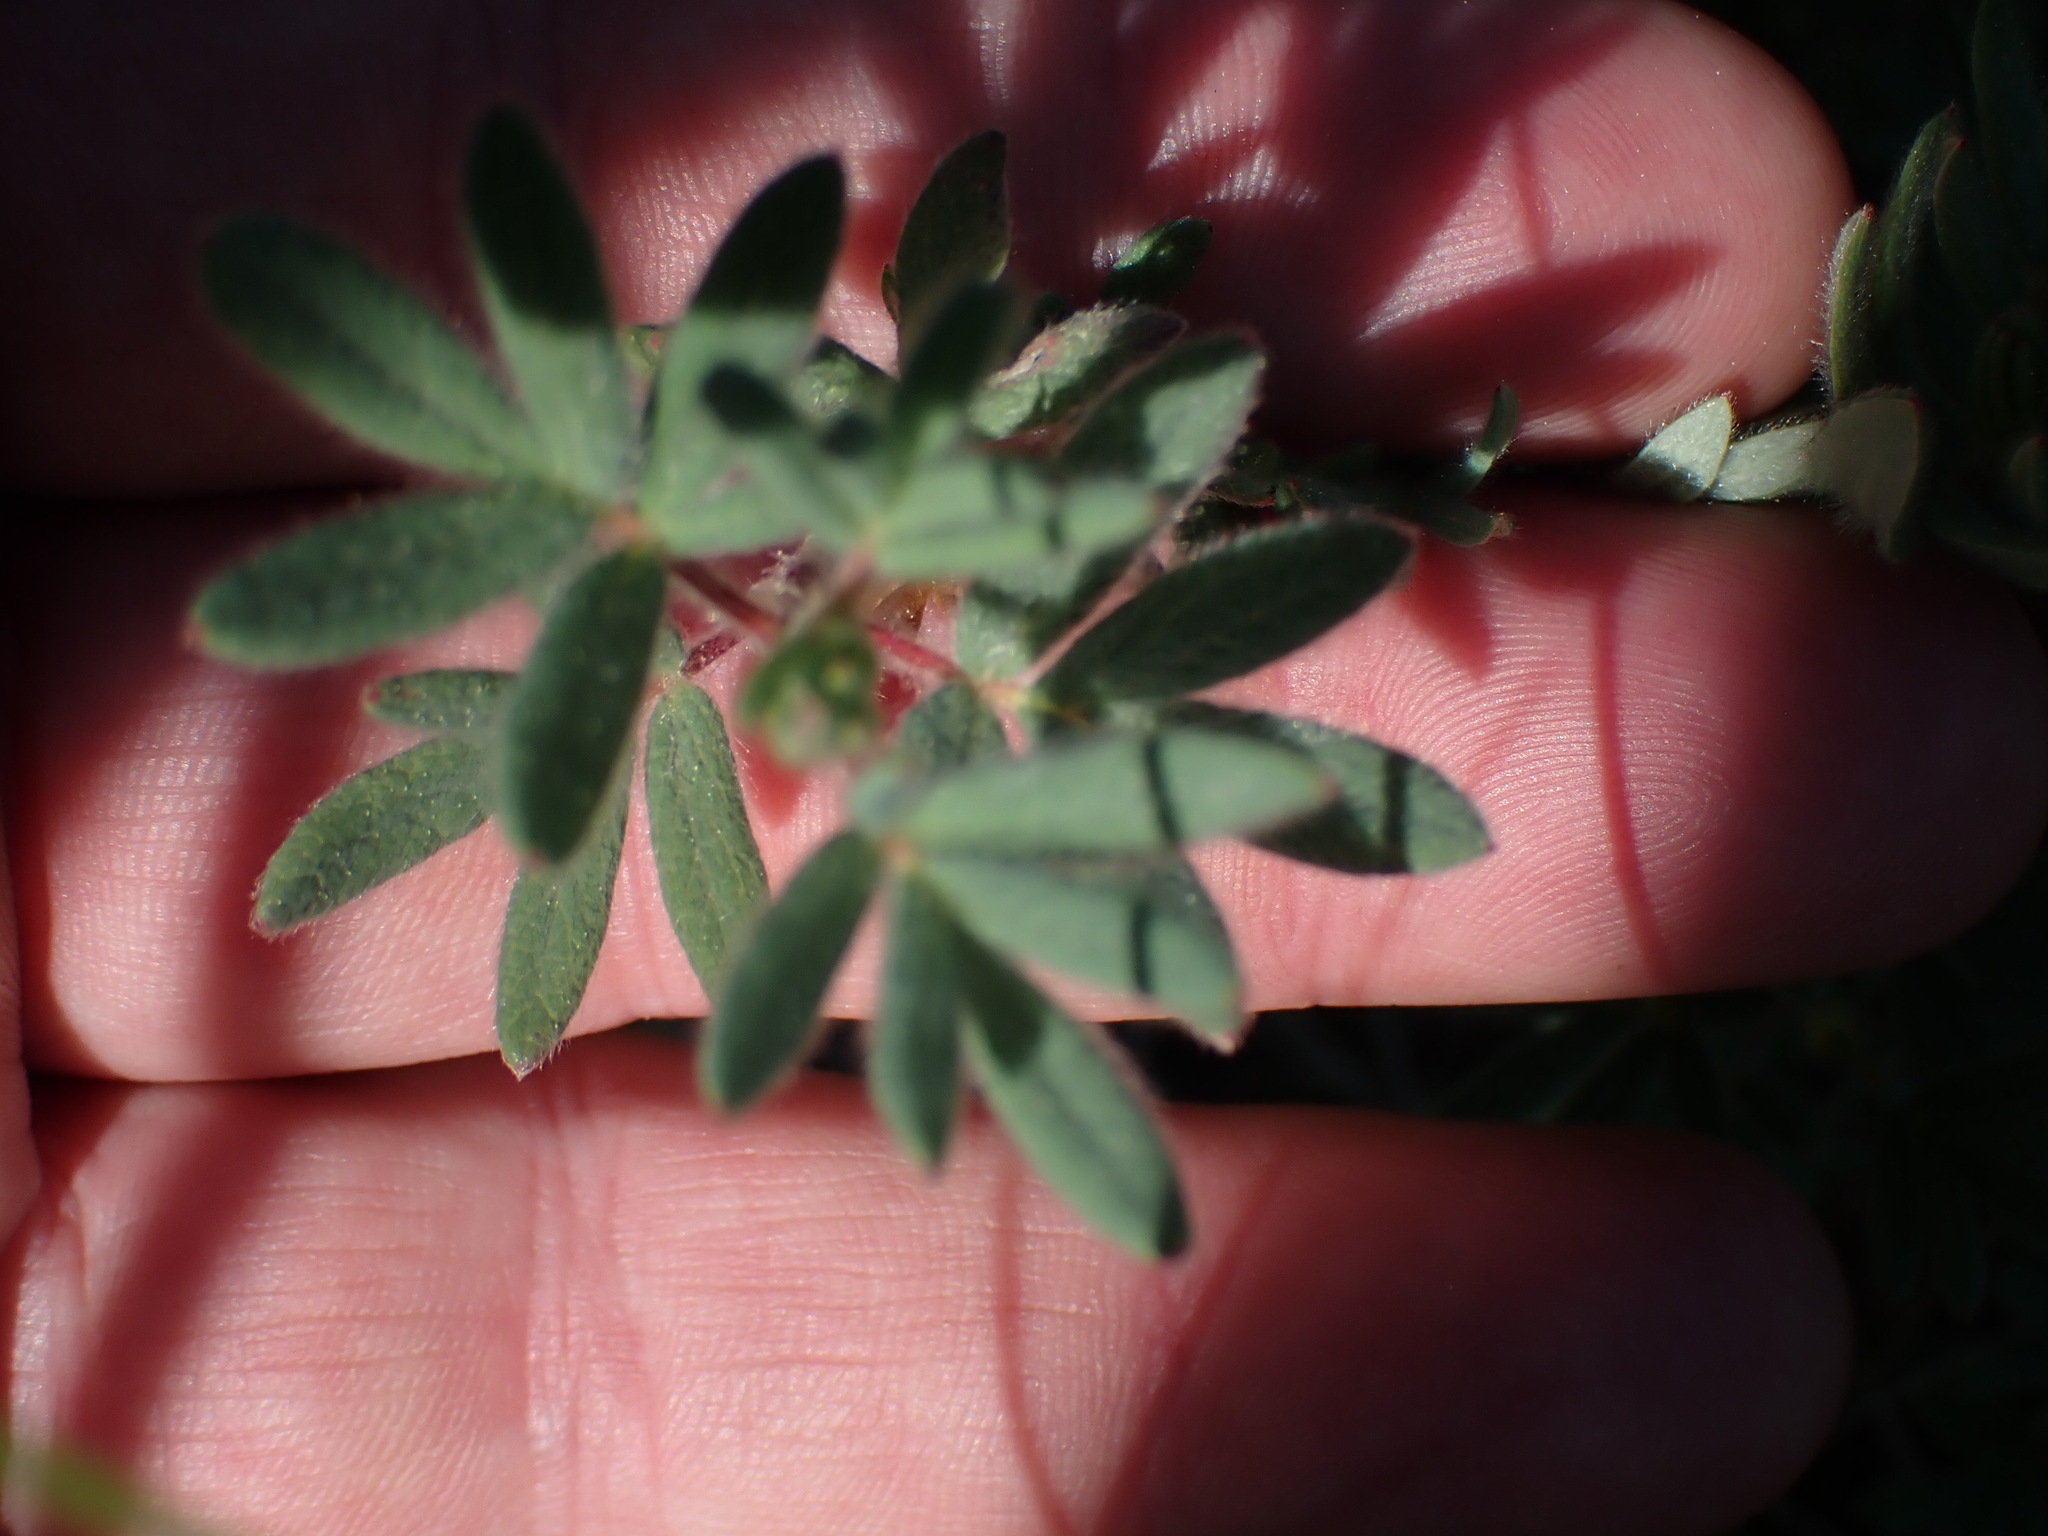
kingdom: Plantae
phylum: Tracheophyta
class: Magnoliopsida
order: Rosales
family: Rosaceae
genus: Dasiphora
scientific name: Dasiphora fruticosa
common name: Shrubby cinquefoil
